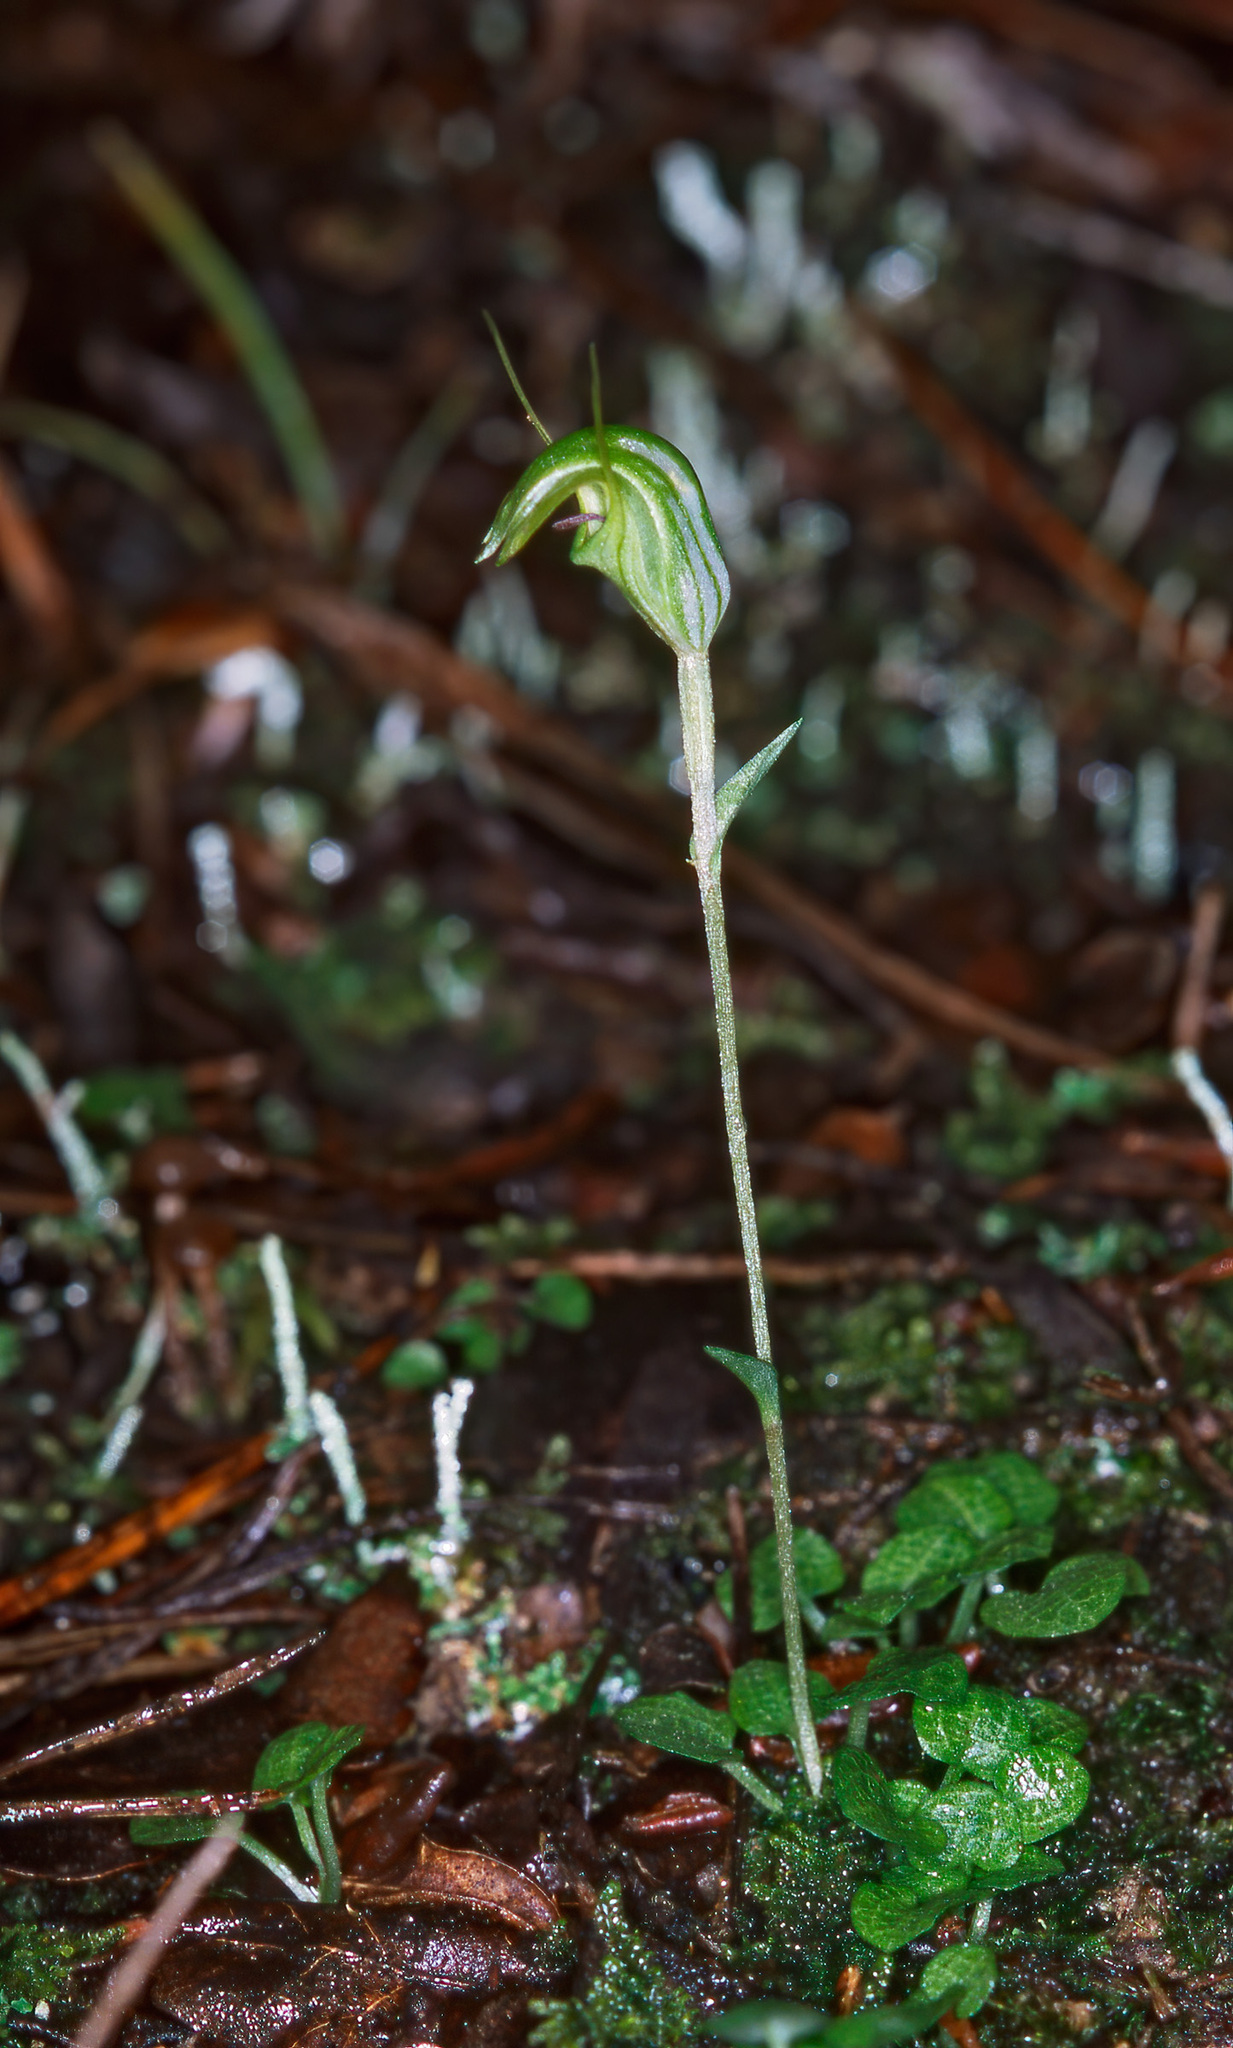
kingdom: Plantae
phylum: Tracheophyta
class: Liliopsida
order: Asparagales
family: Orchidaceae
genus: Pterostylis
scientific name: Pterostylis trullifolia
